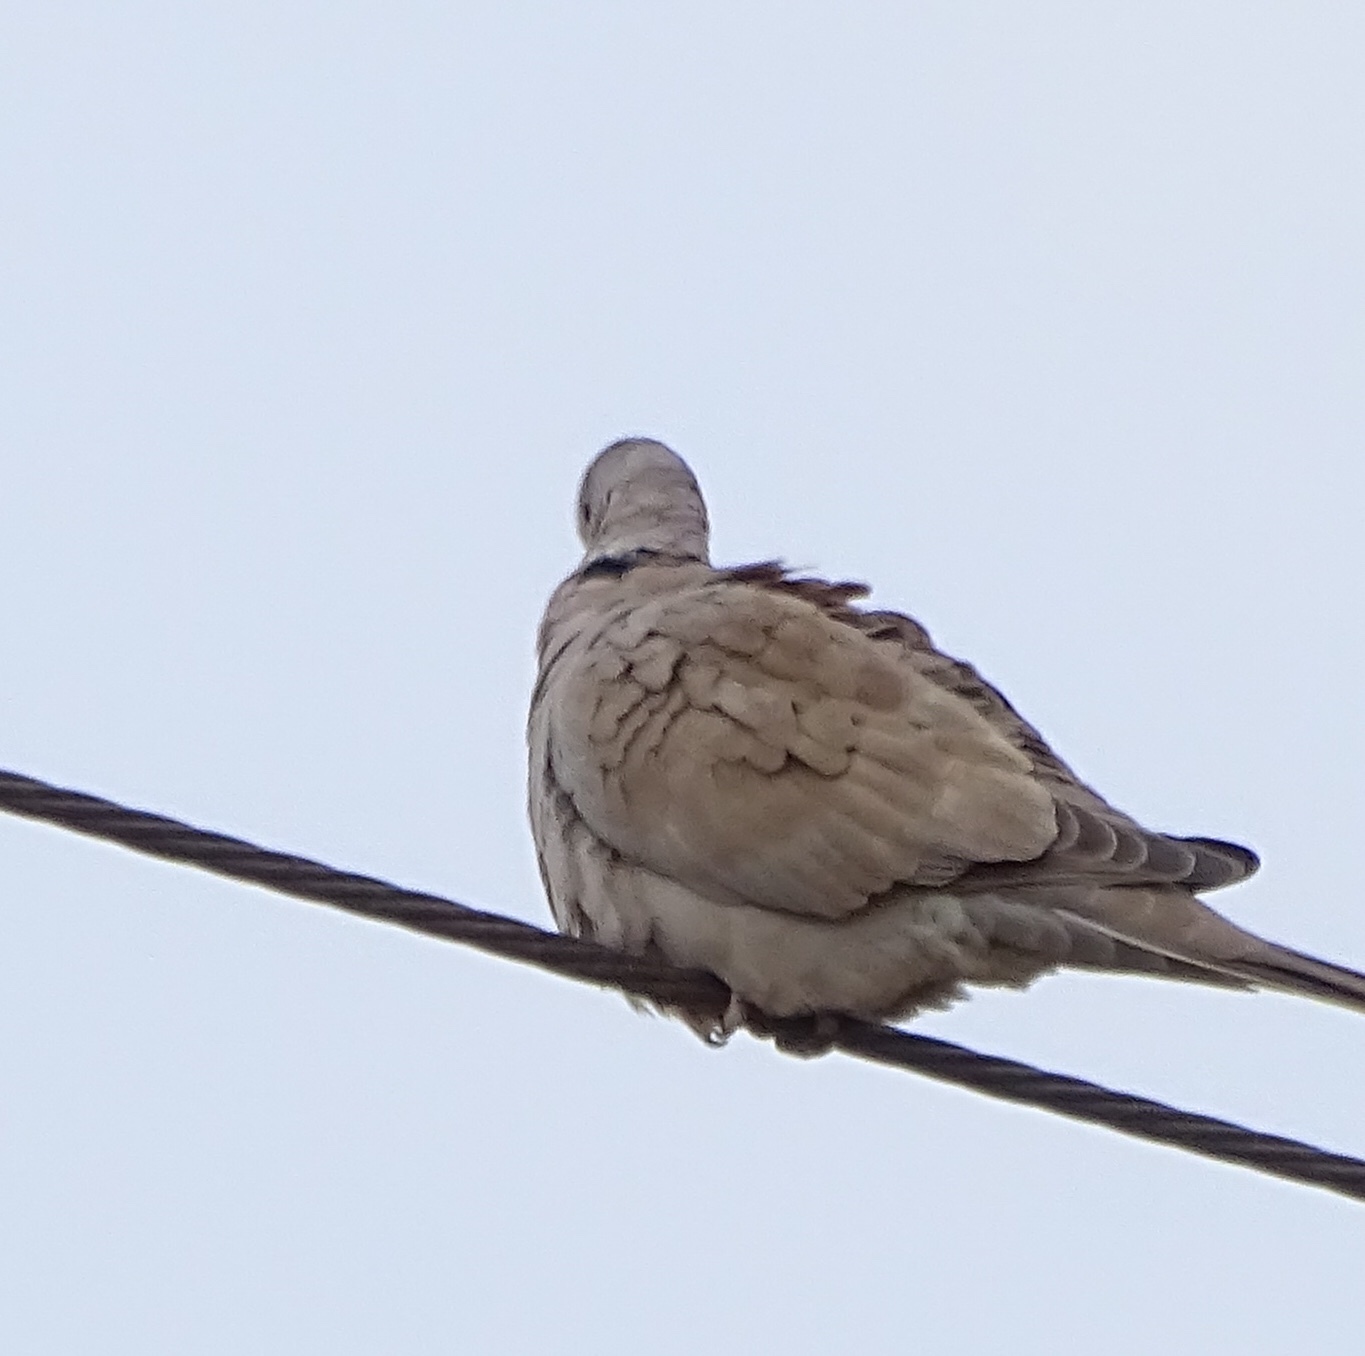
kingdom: Animalia
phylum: Chordata
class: Aves
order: Columbiformes
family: Columbidae
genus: Streptopelia
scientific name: Streptopelia decaocto
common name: Eurasian collared dove
